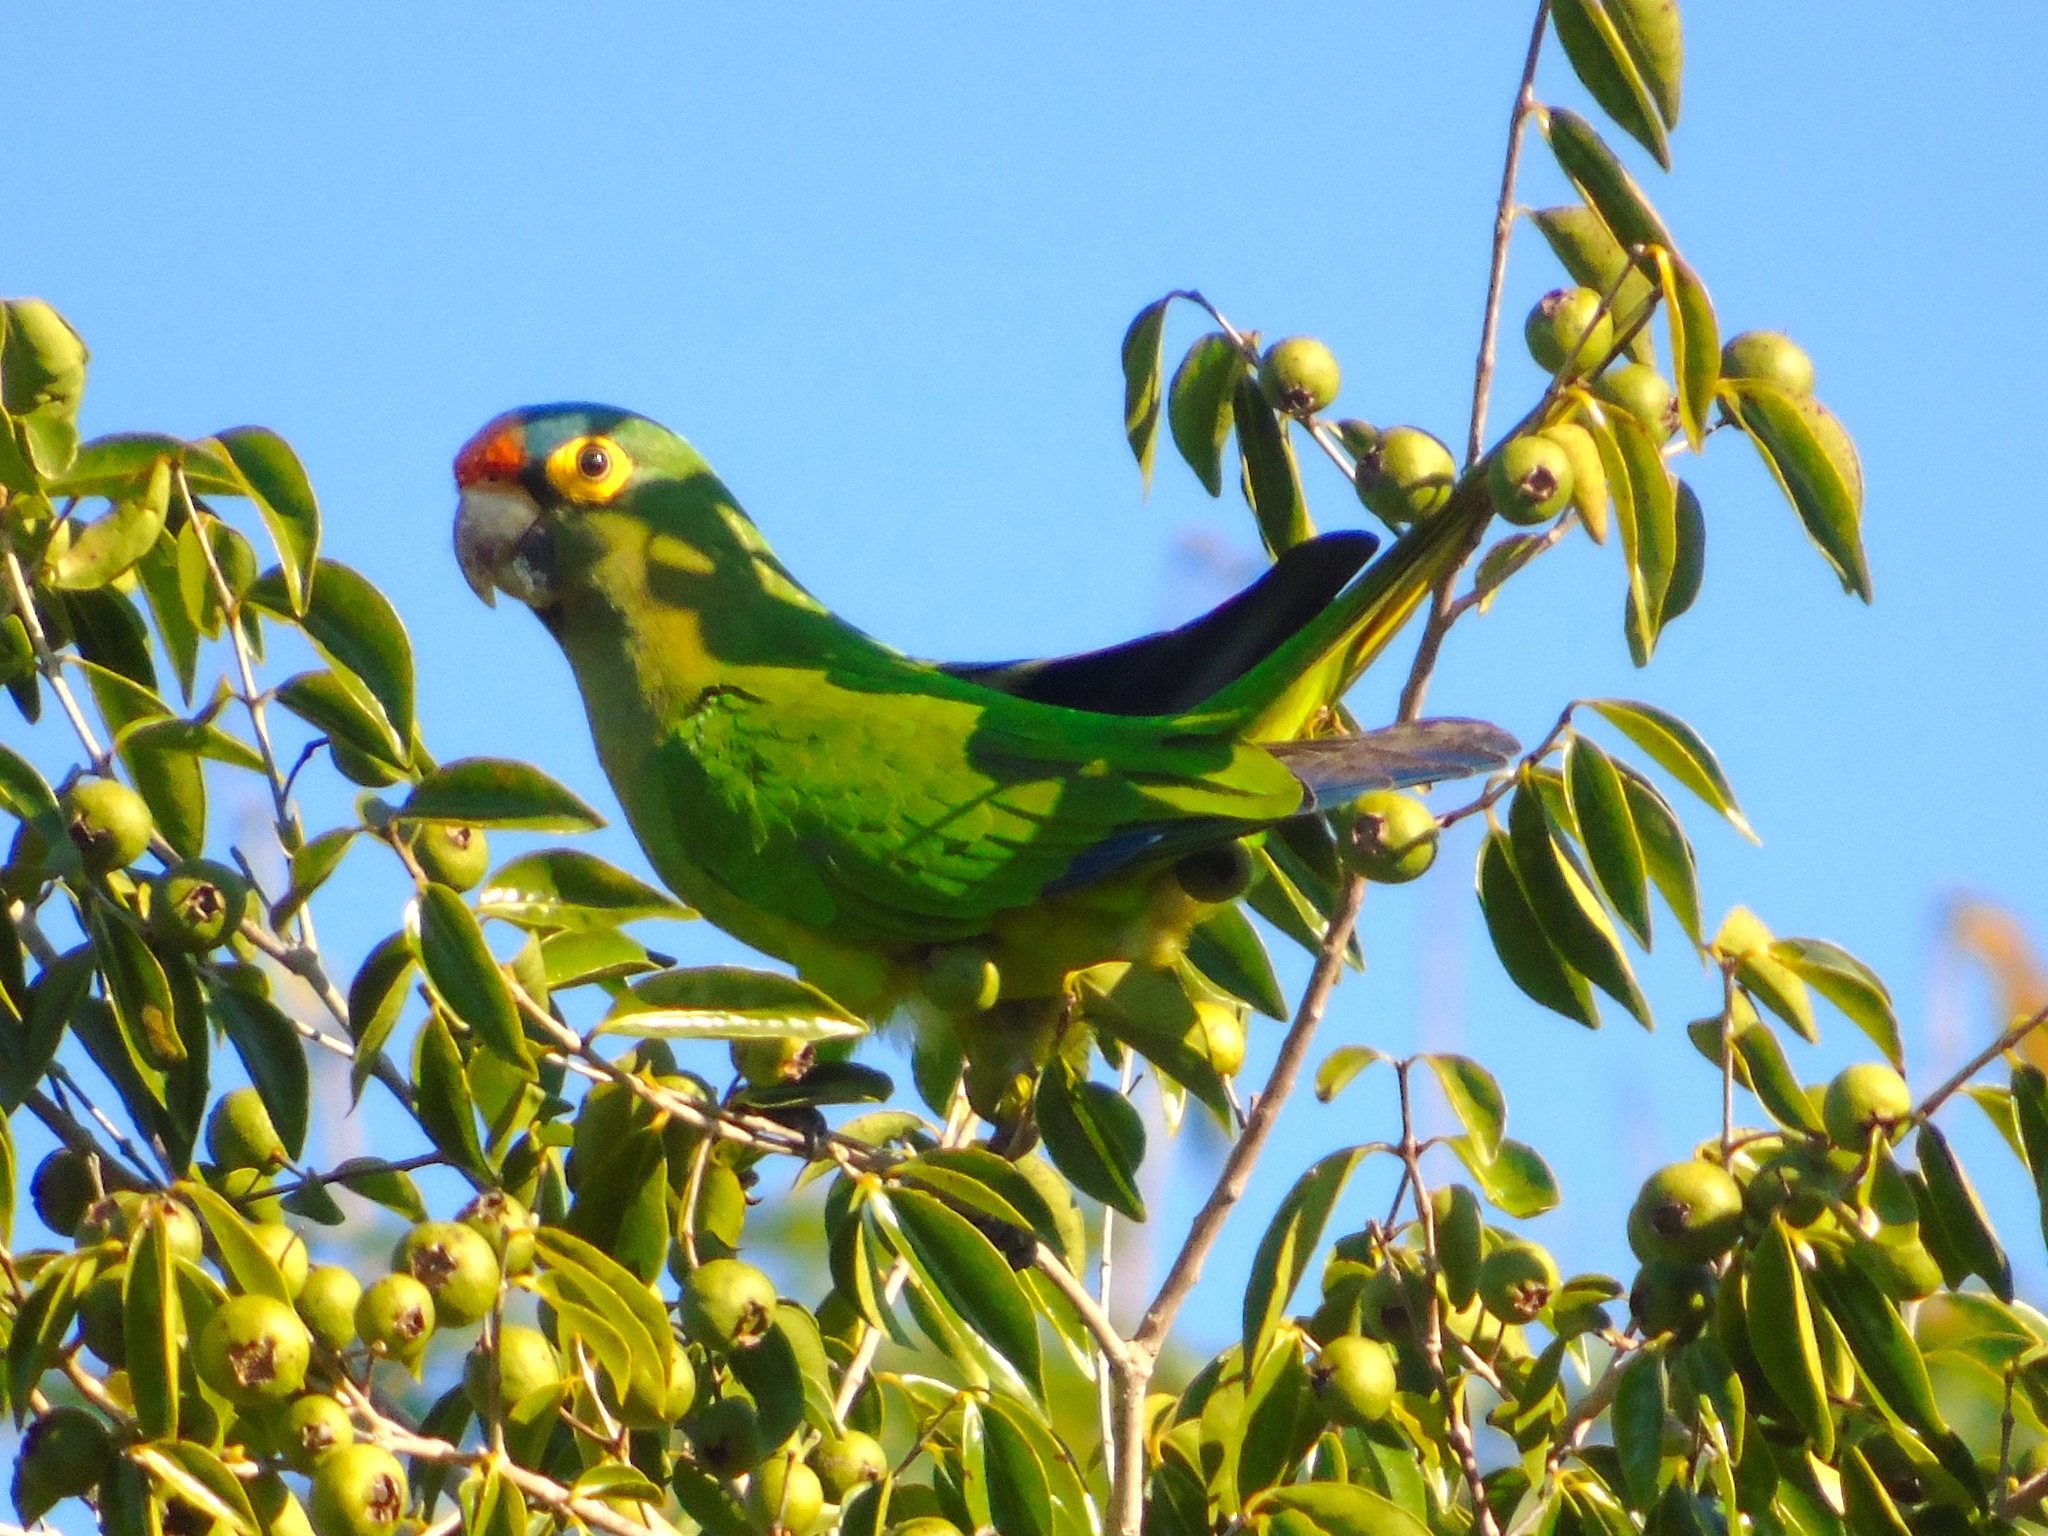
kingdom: Animalia
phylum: Chordata
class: Aves
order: Psittaciformes
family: Psittacidae
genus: Aratinga
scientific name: Aratinga canicularis
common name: Orange-fronted parakeet
